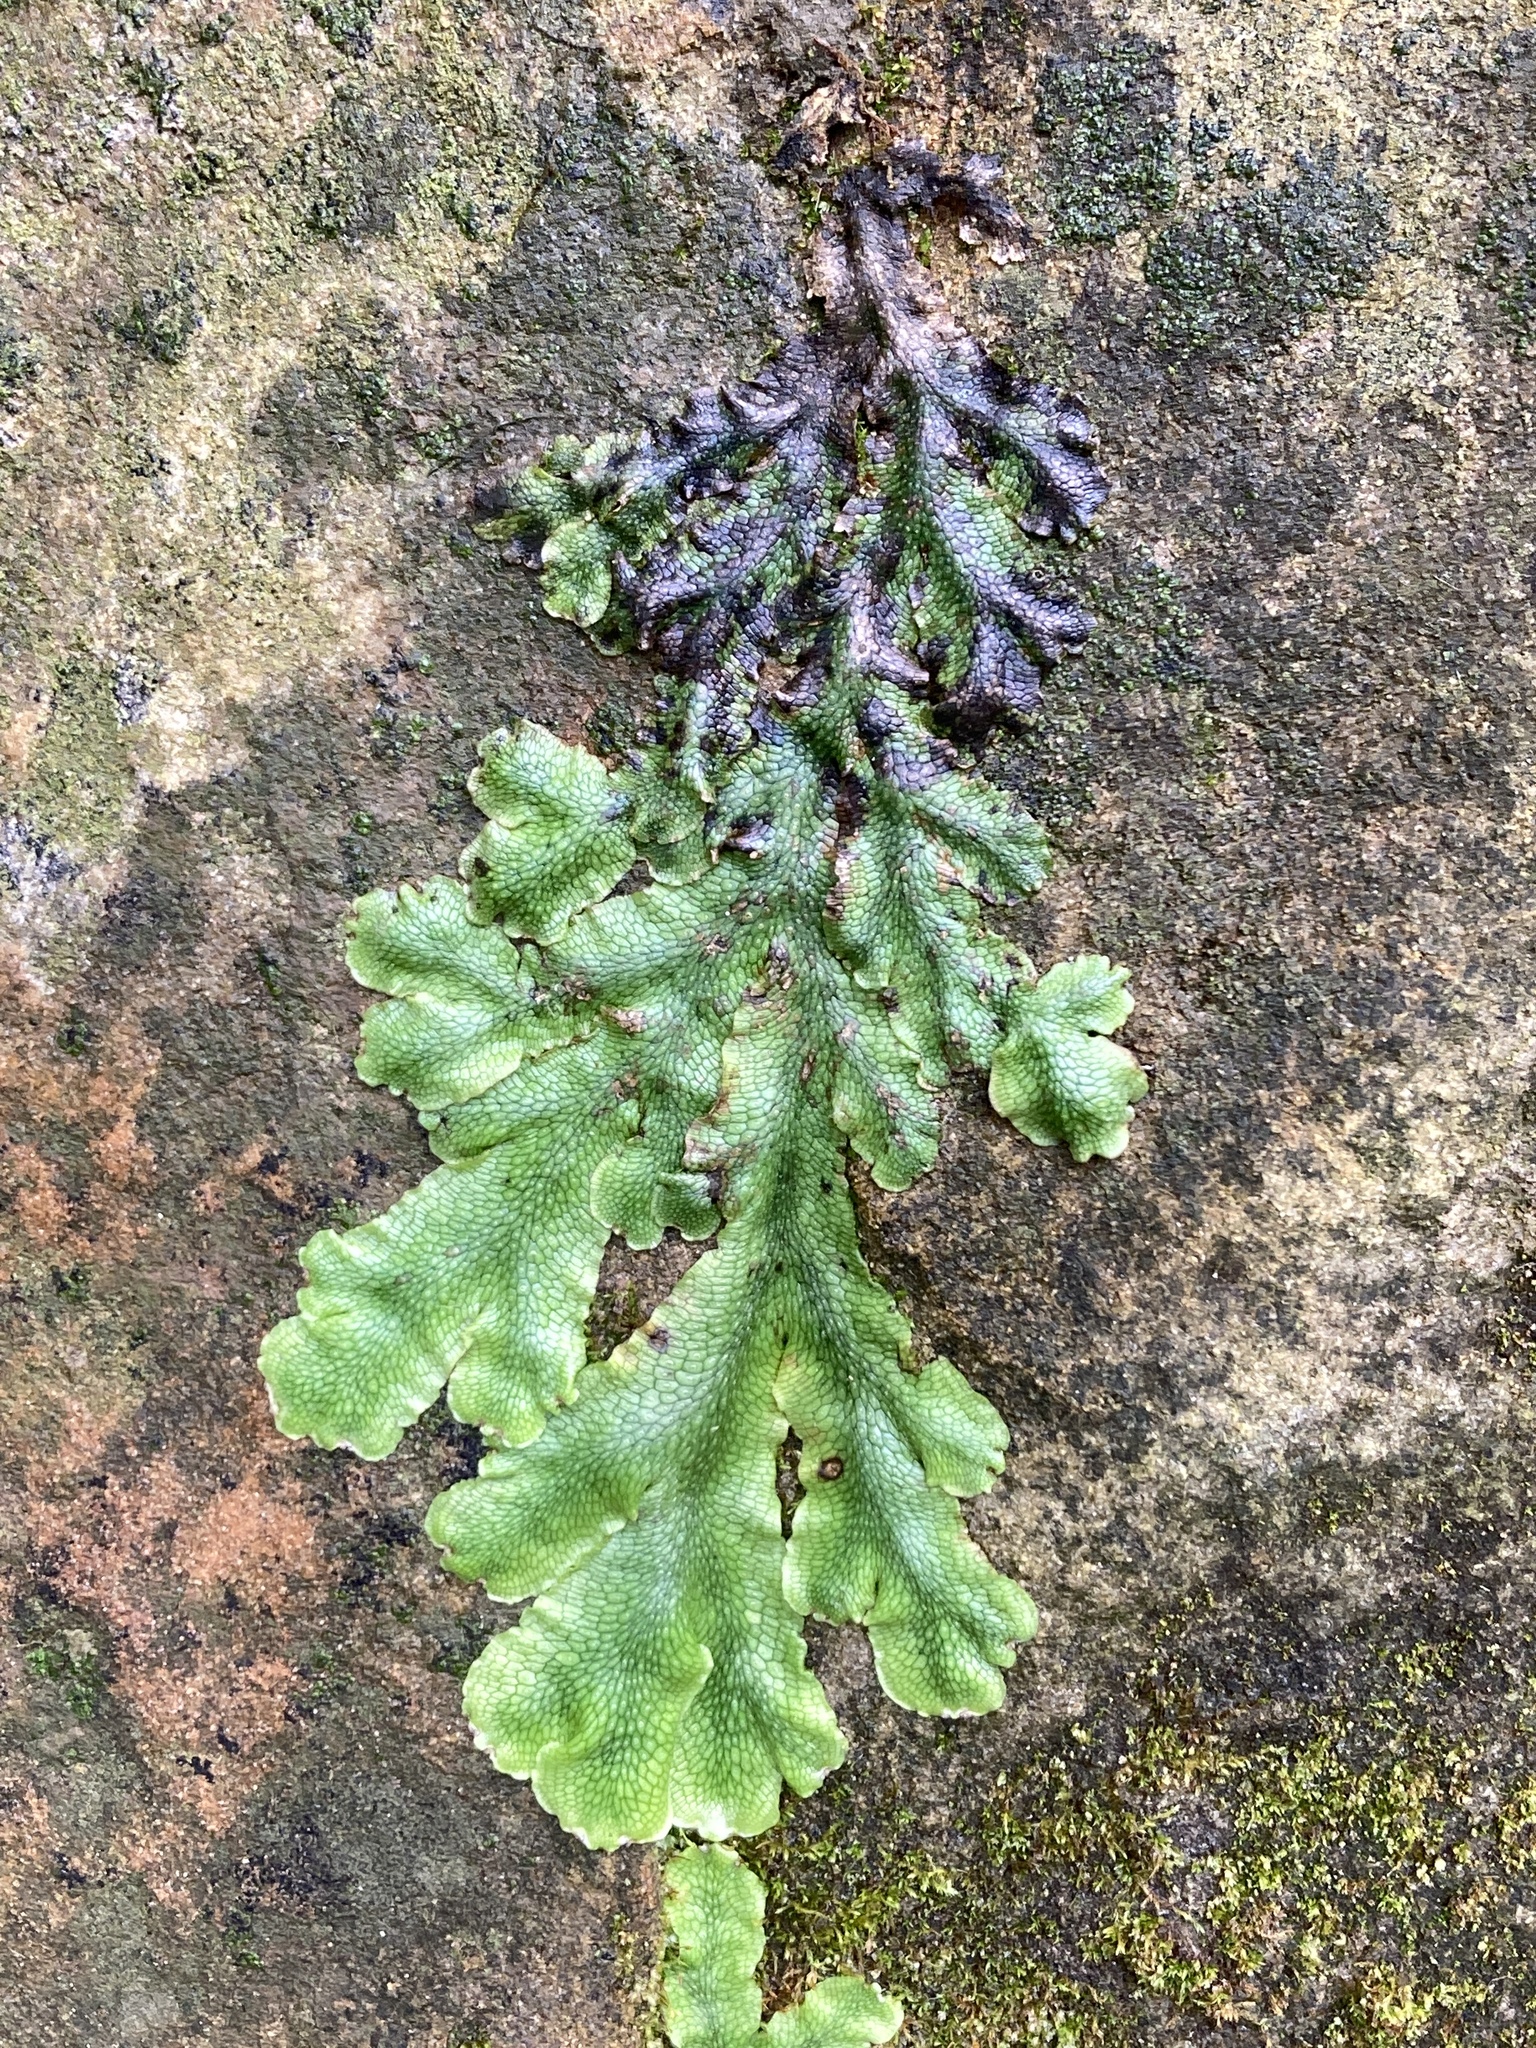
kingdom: Plantae
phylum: Marchantiophyta
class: Marchantiopsida
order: Marchantiales
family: Conocephalaceae
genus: Conocephalum
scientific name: Conocephalum salebrosum
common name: Cat-tongue liverwort
